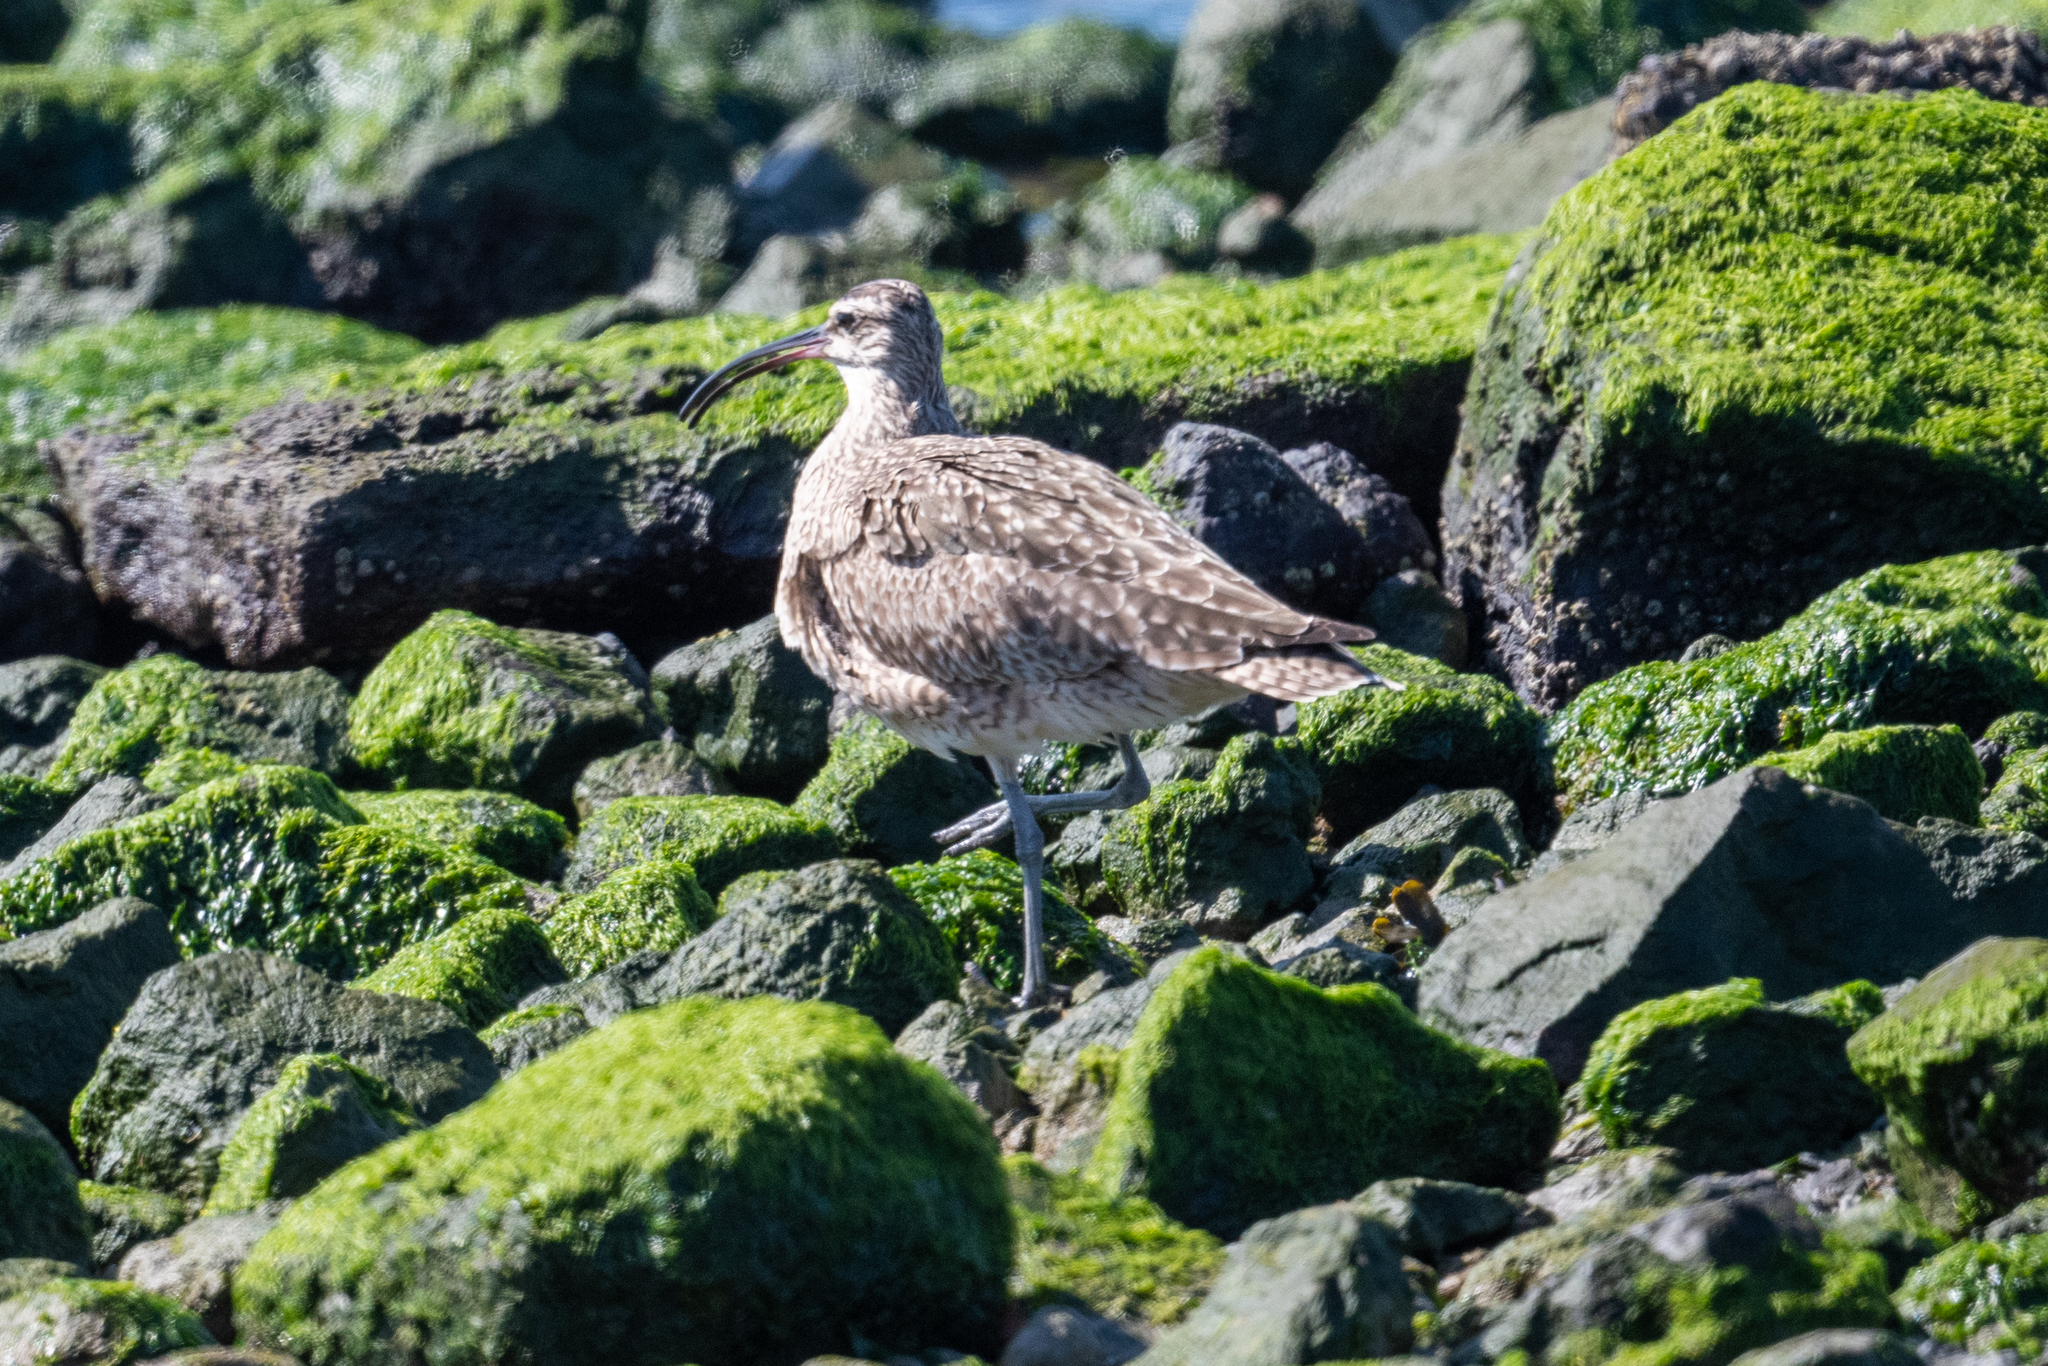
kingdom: Animalia
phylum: Chordata
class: Aves
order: Charadriiformes
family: Scolopacidae
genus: Numenius
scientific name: Numenius phaeopus
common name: Whimbrel
